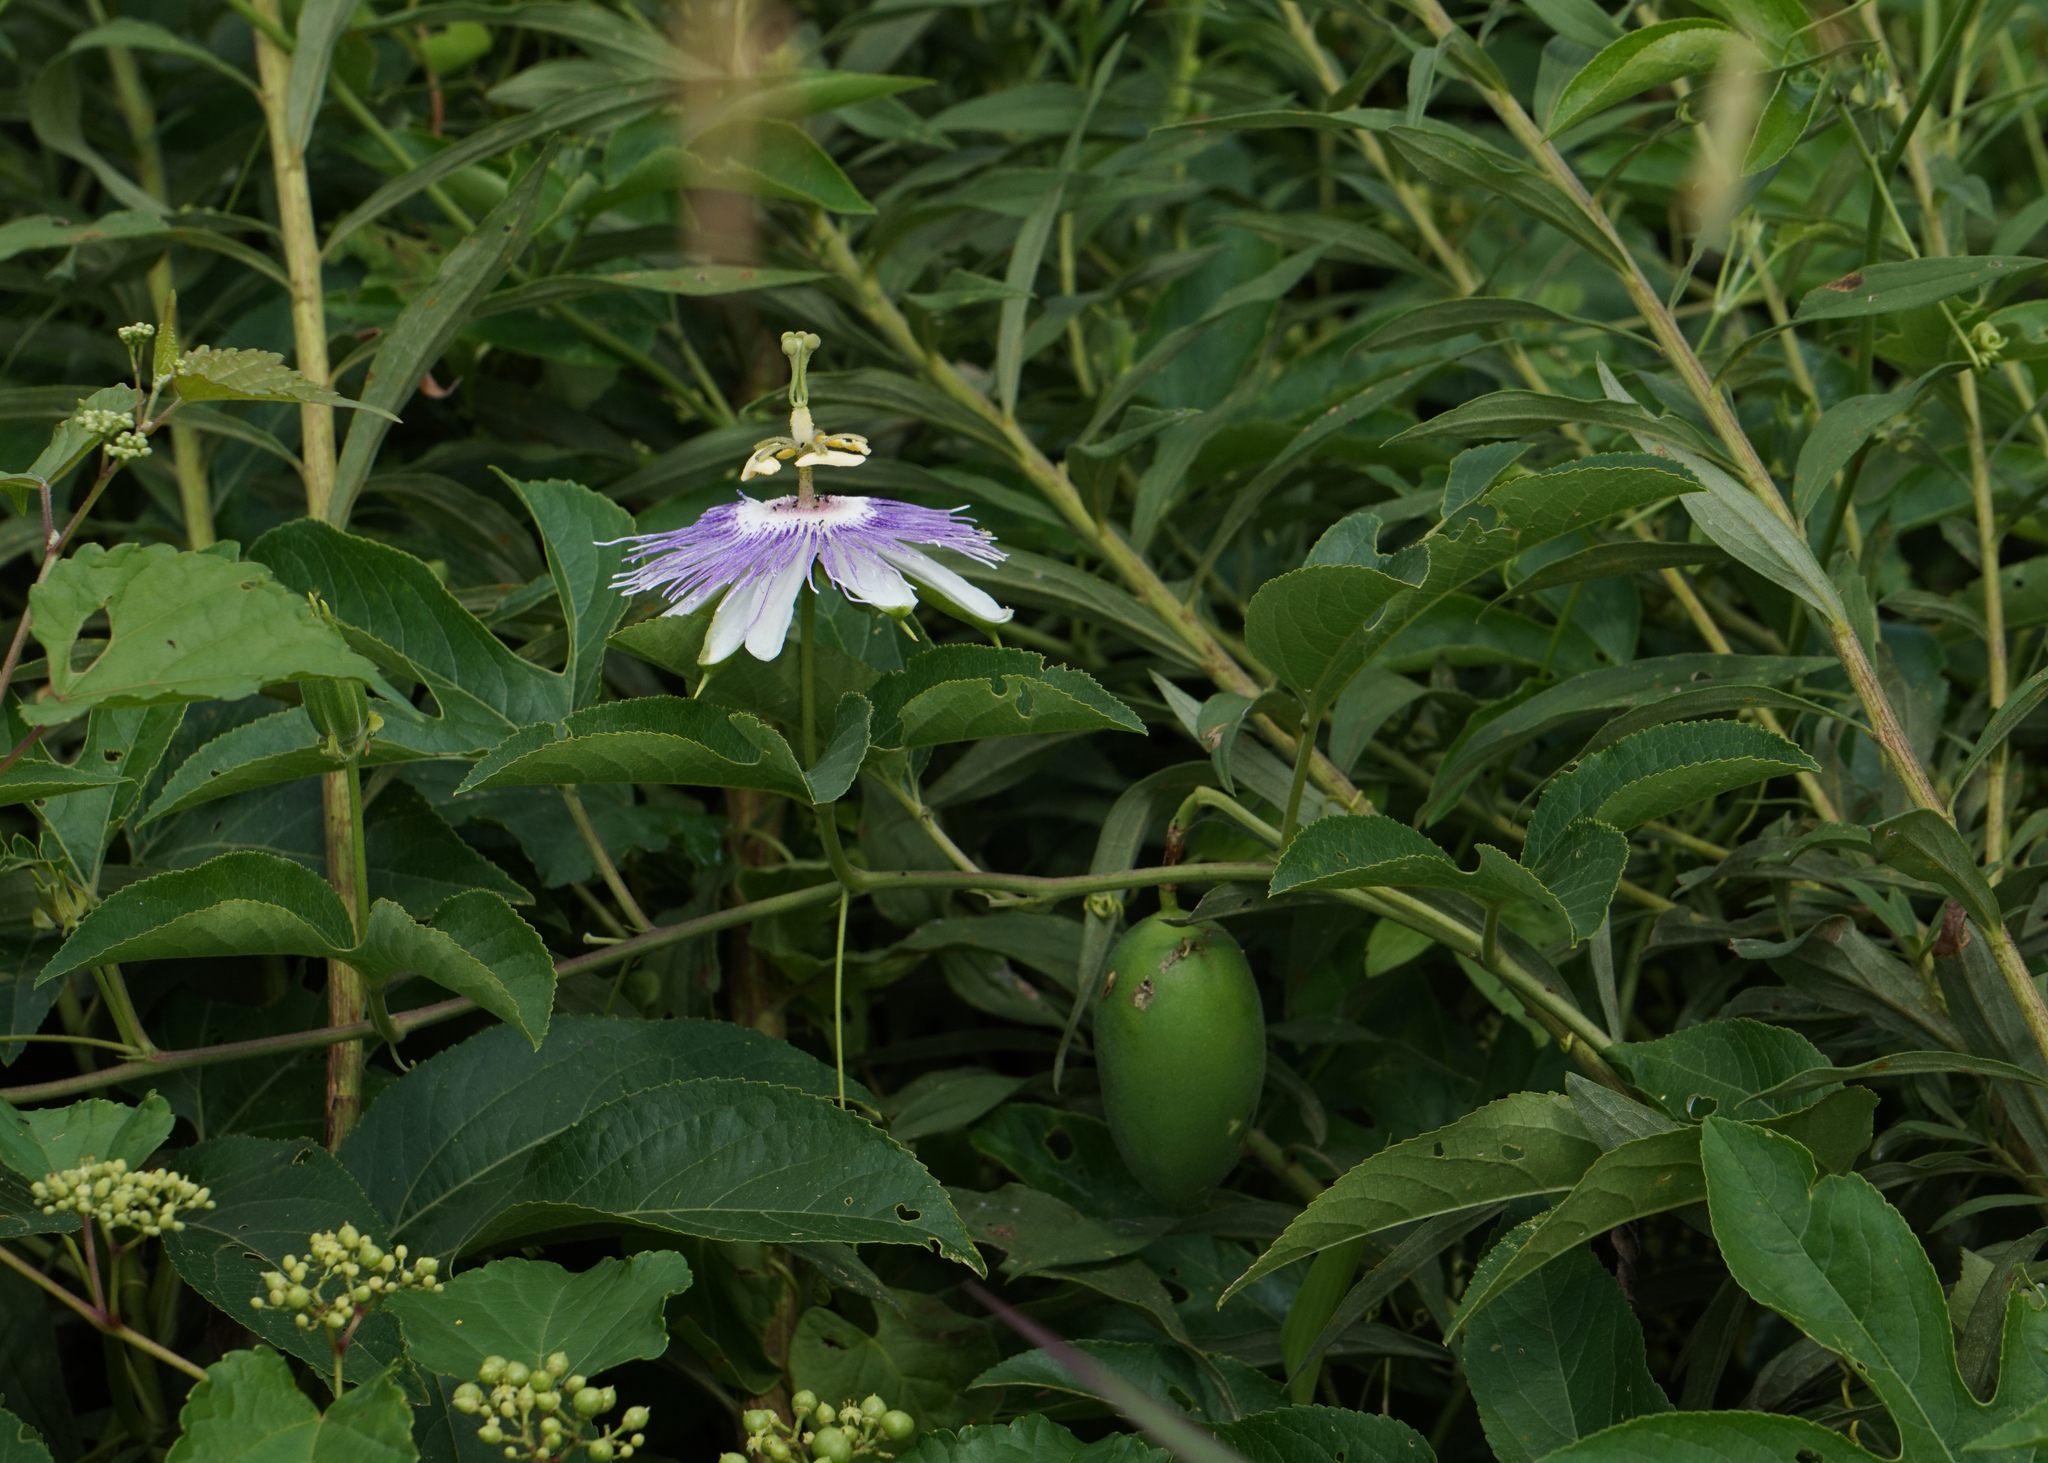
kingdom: Plantae
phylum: Tracheophyta
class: Magnoliopsida
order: Malpighiales
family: Passifloraceae
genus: Passiflora
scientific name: Passiflora incarnata
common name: Apricot-vine
